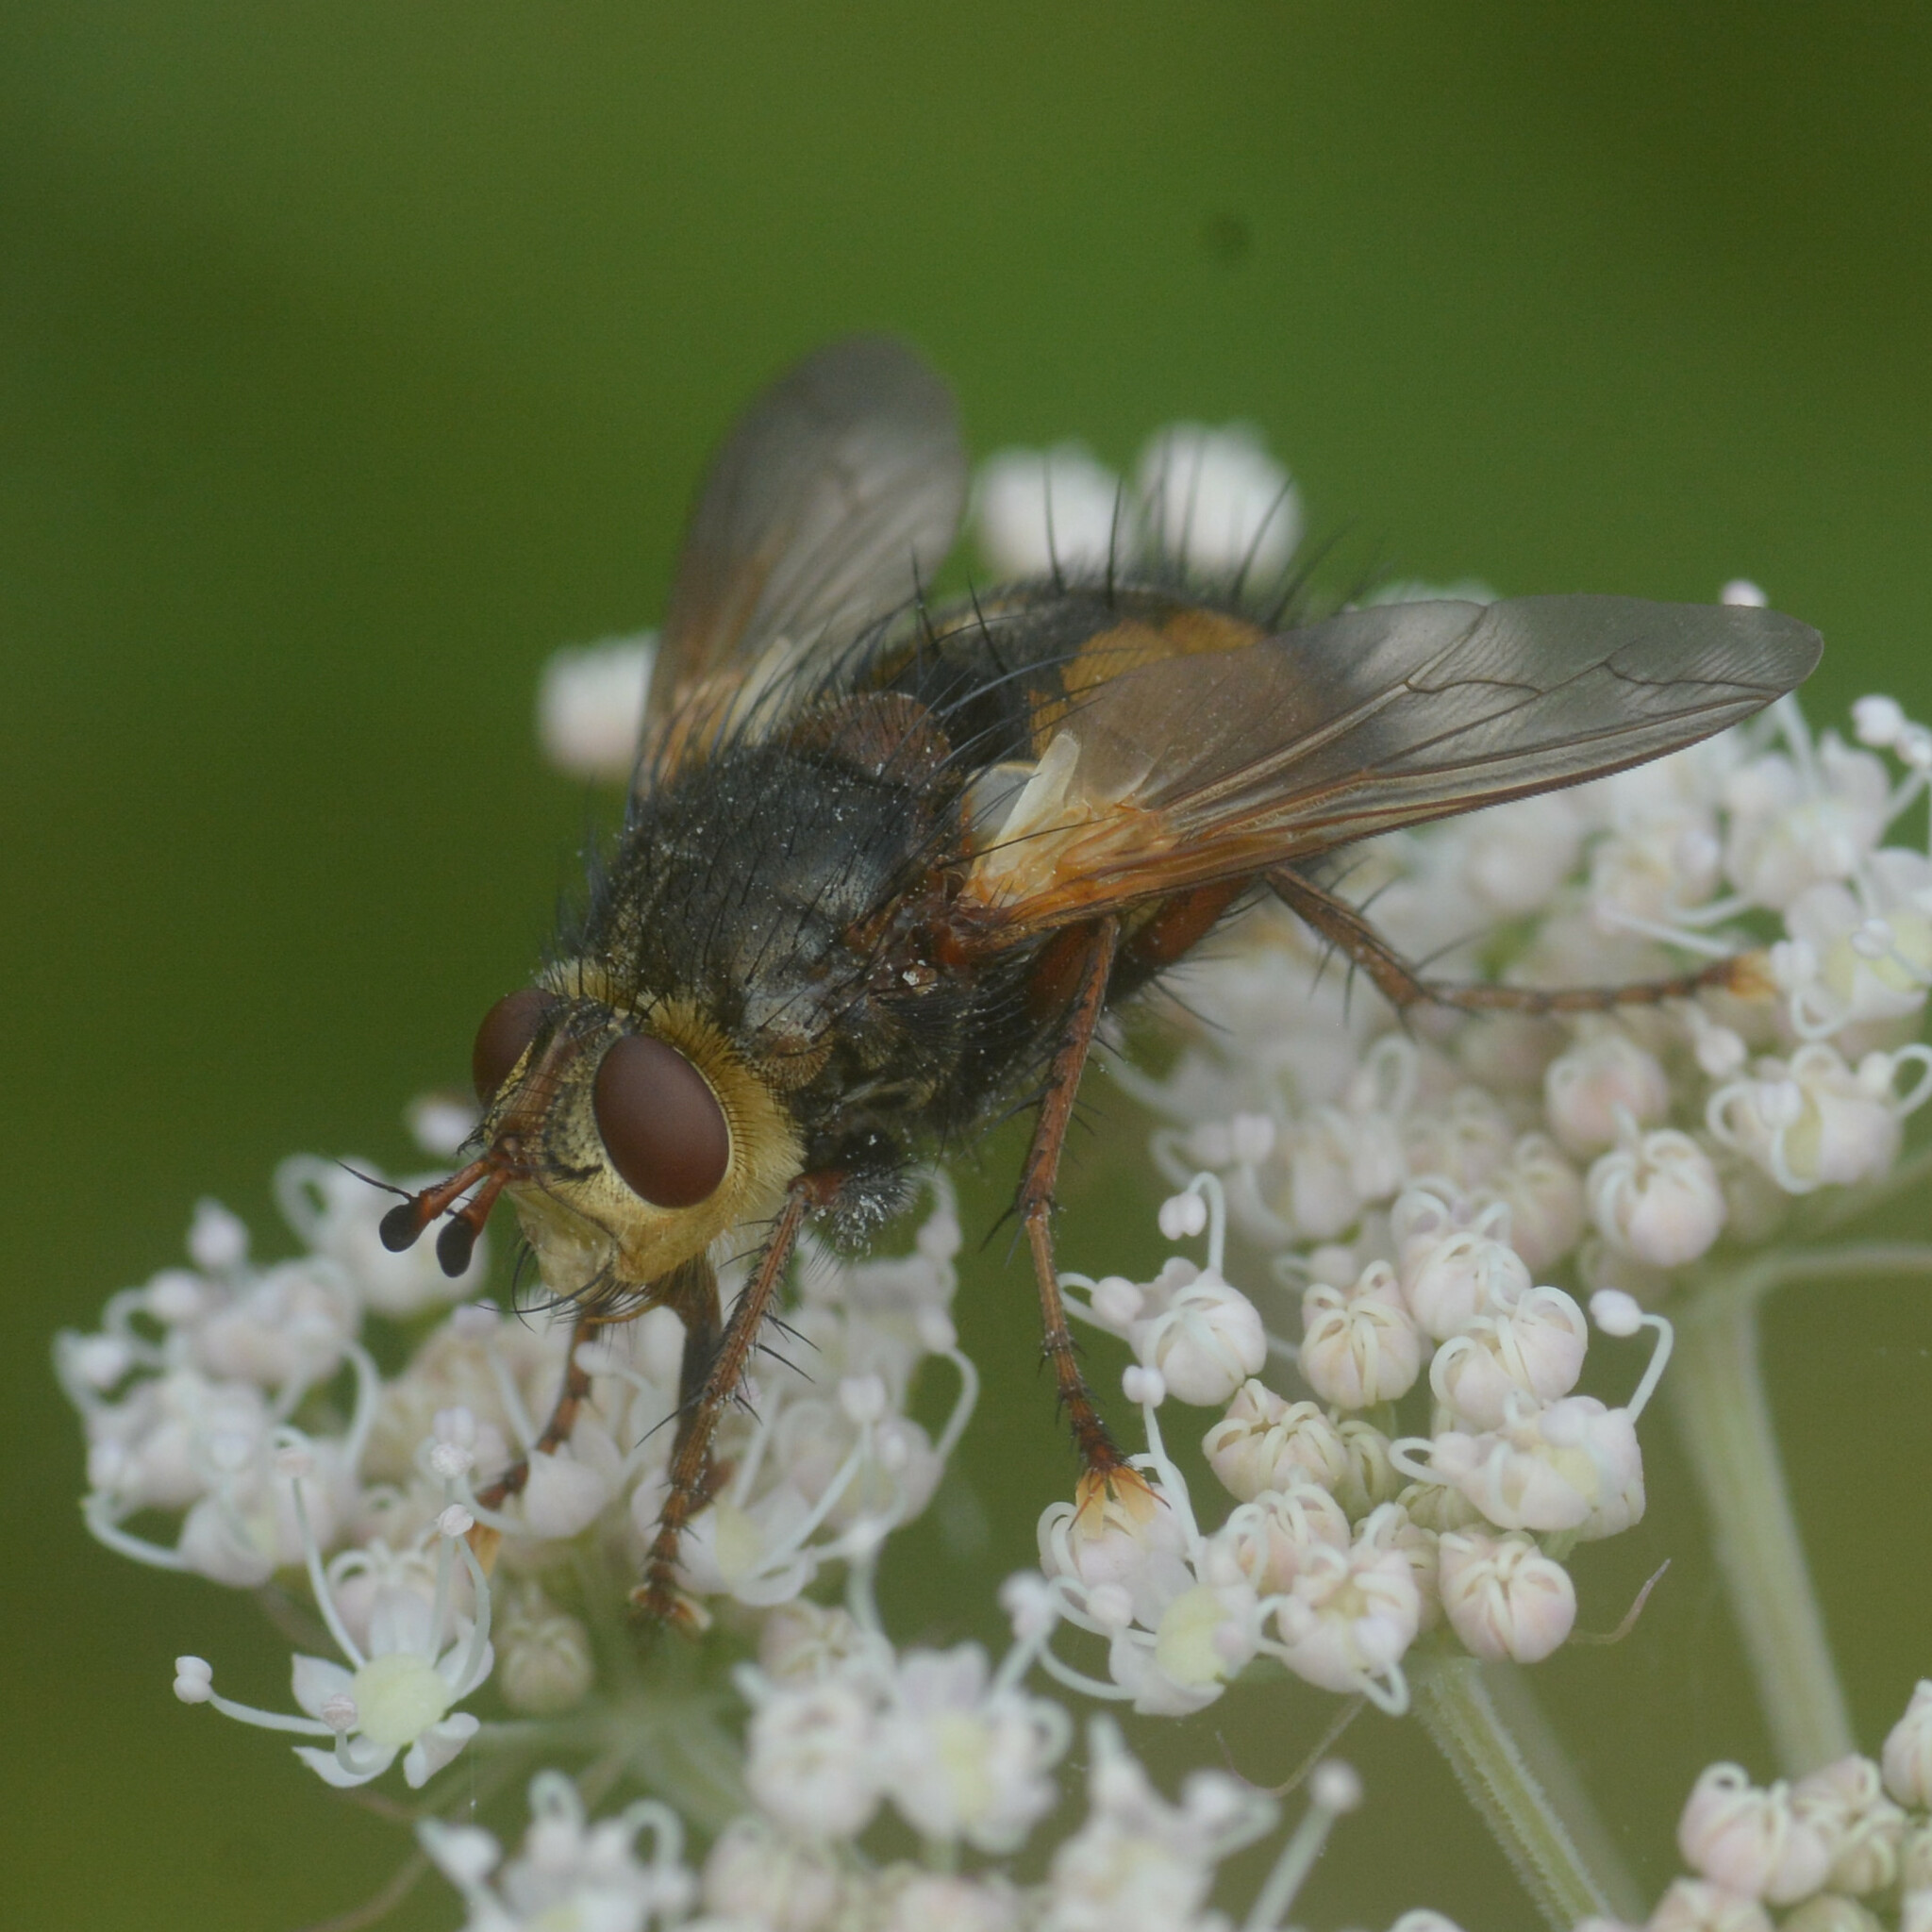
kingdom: Animalia
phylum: Arthropoda
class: Insecta
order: Diptera
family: Tachinidae
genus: Tachina
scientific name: Tachina fera
